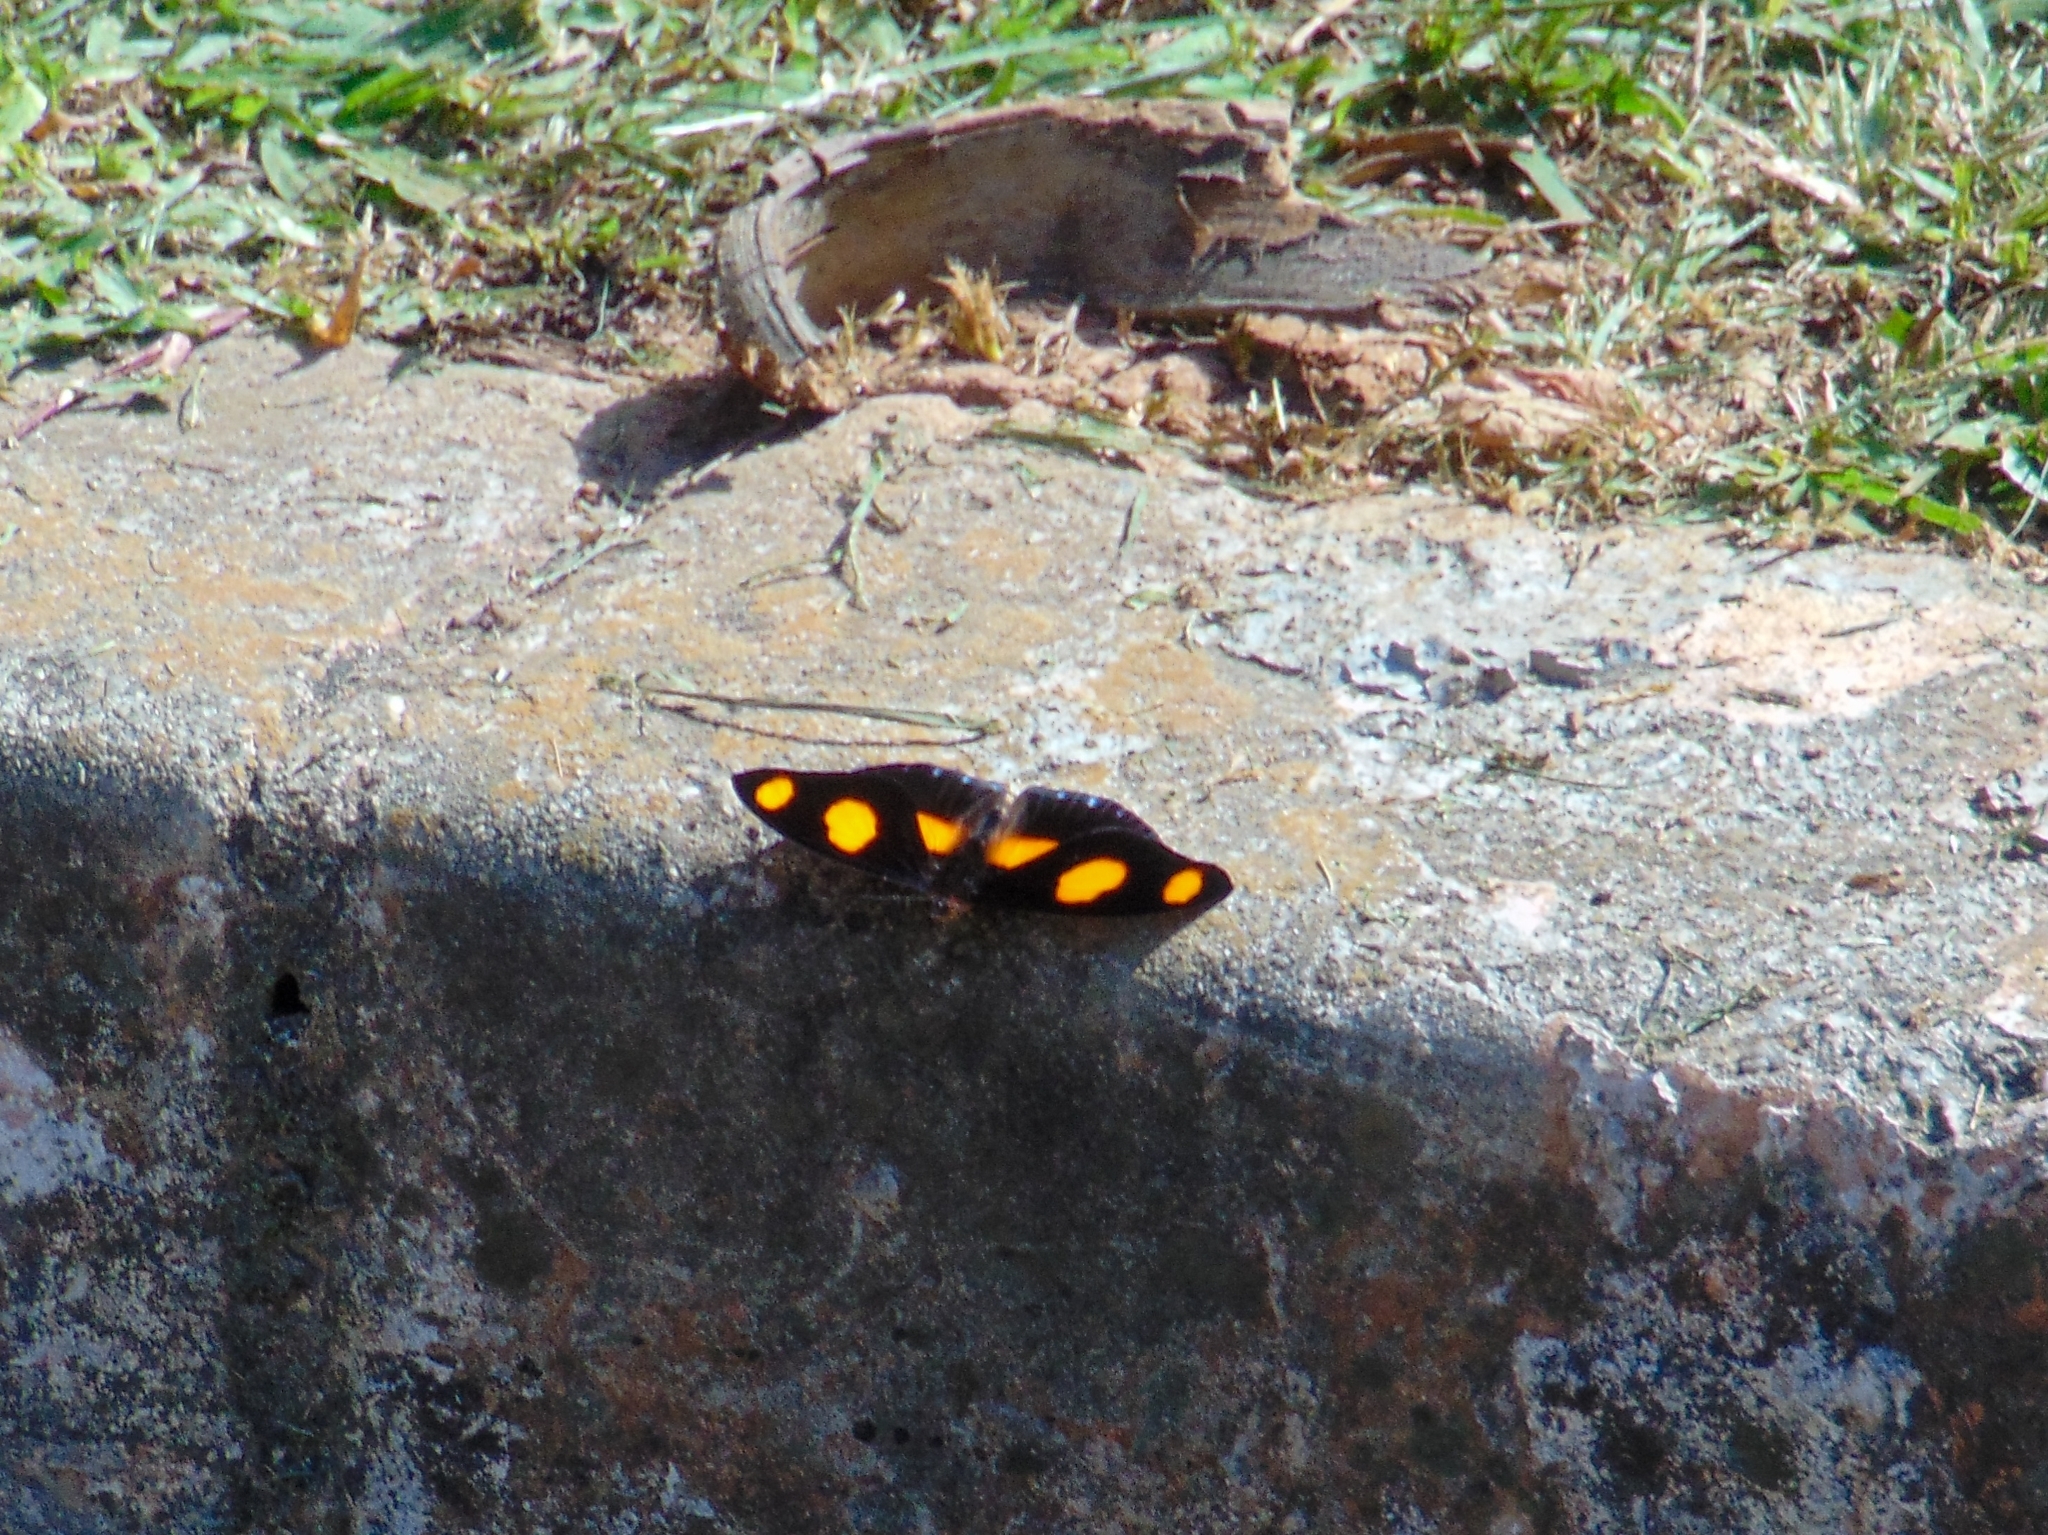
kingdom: Animalia
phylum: Arthropoda
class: Insecta
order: Lepidoptera
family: Nymphalidae
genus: Catonephele
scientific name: Catonephele numilia
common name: Blue-frosted banner
